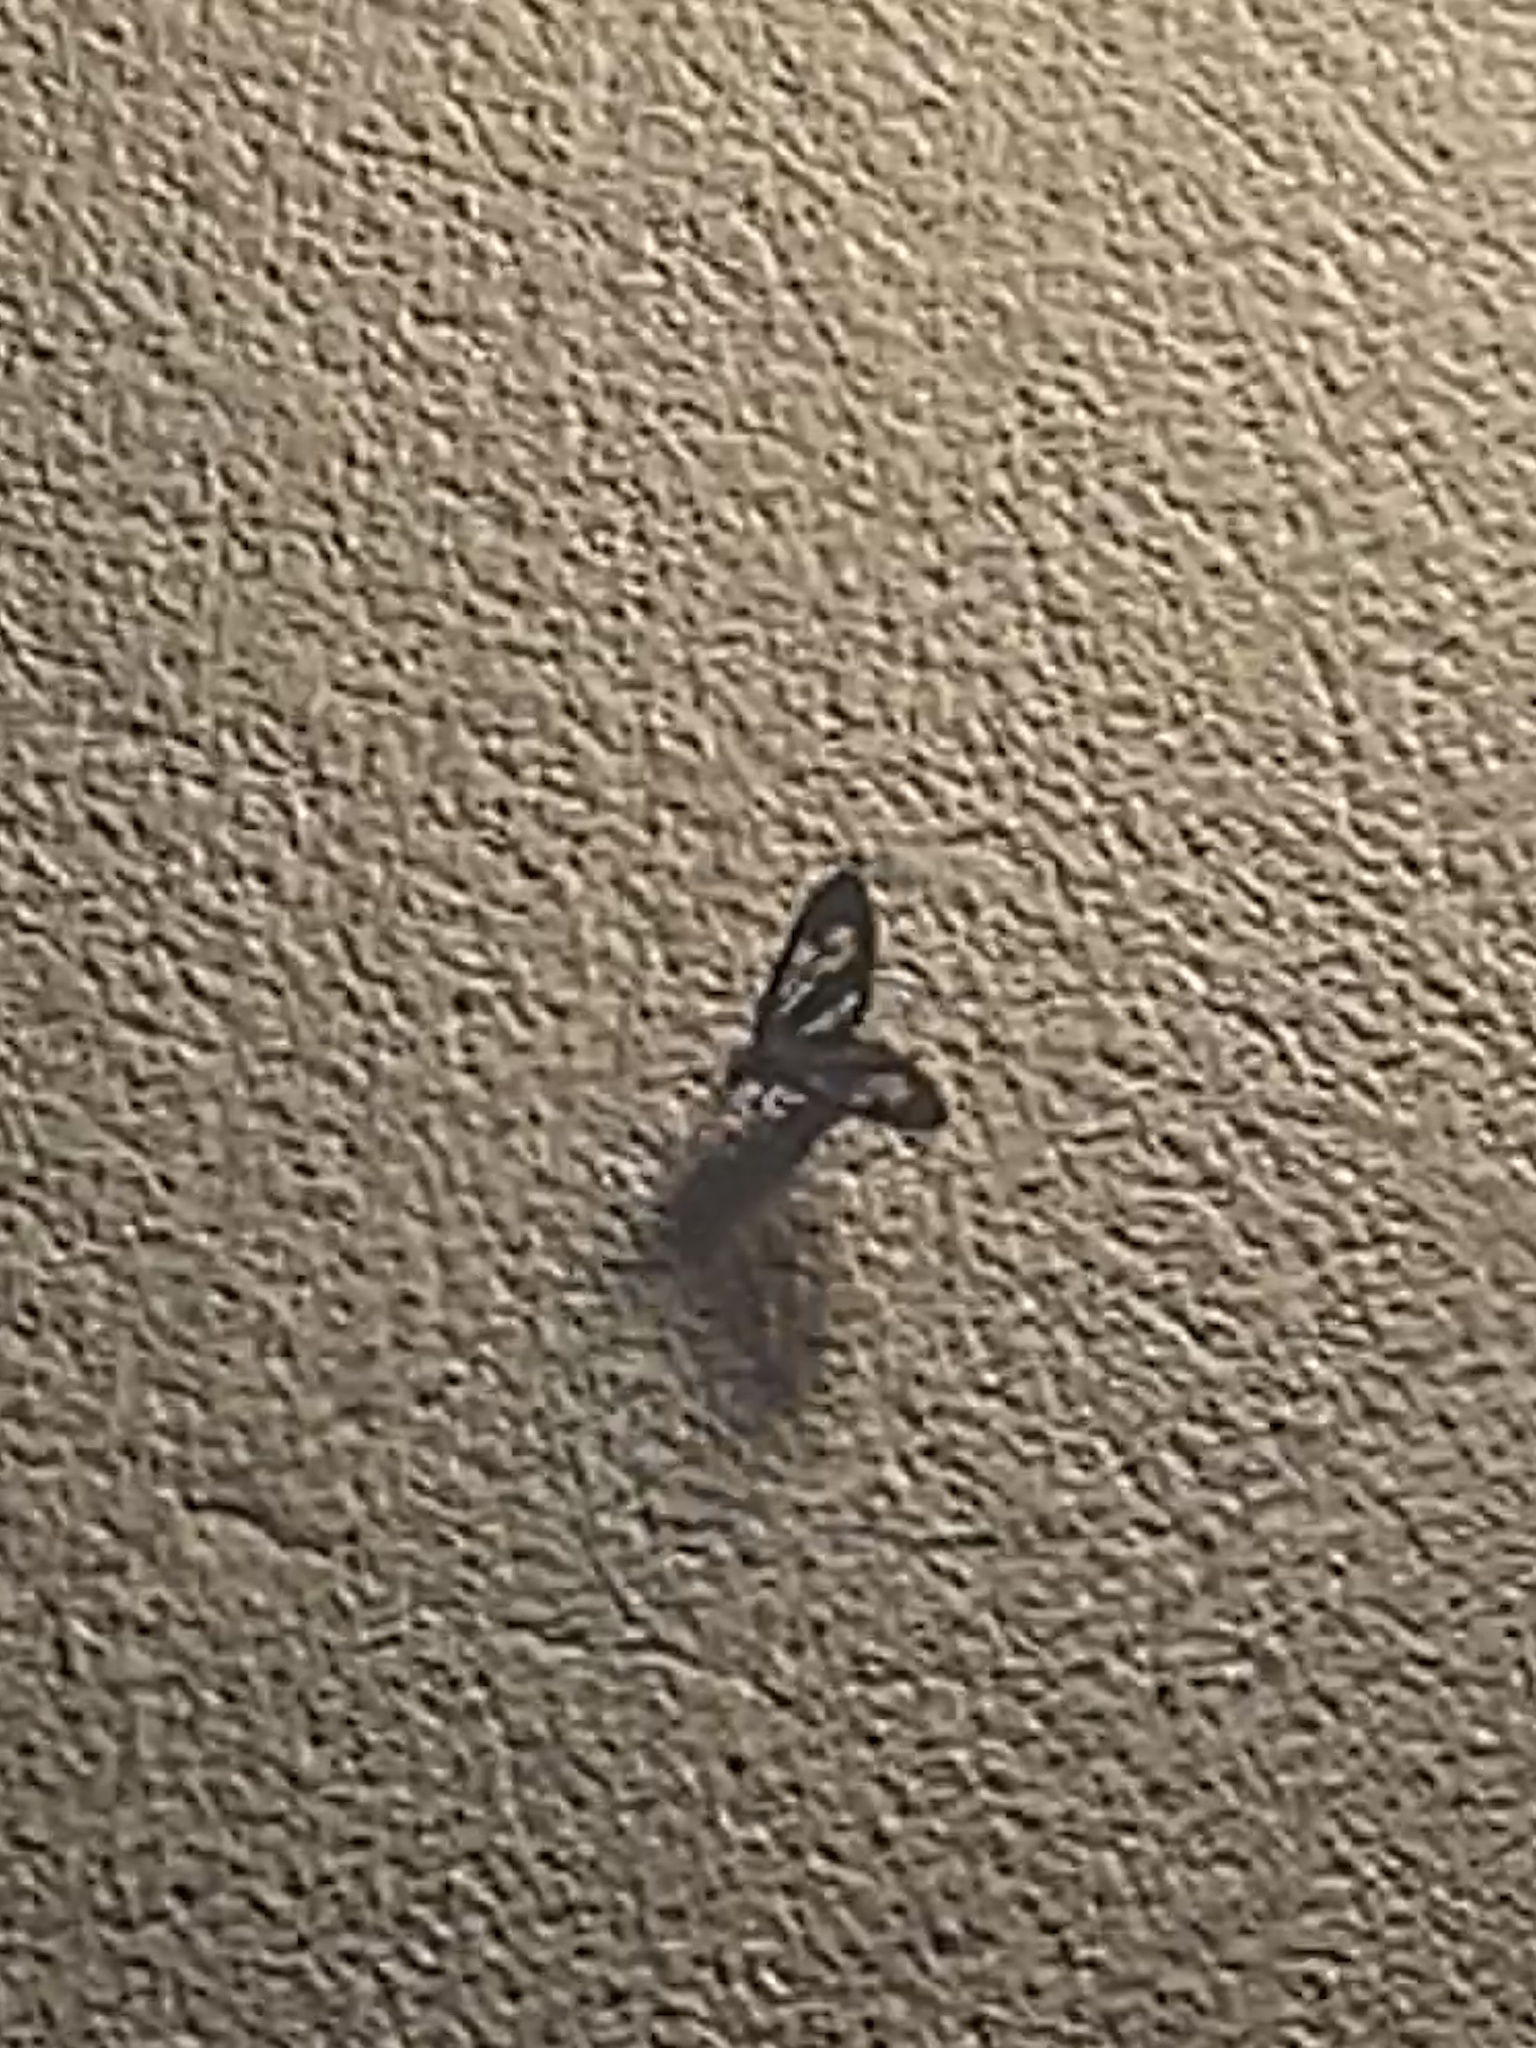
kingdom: Animalia
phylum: Arthropoda
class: Insecta
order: Lepidoptera
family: Erebidae
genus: Arctagyrta
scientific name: Arctagyrta nana
